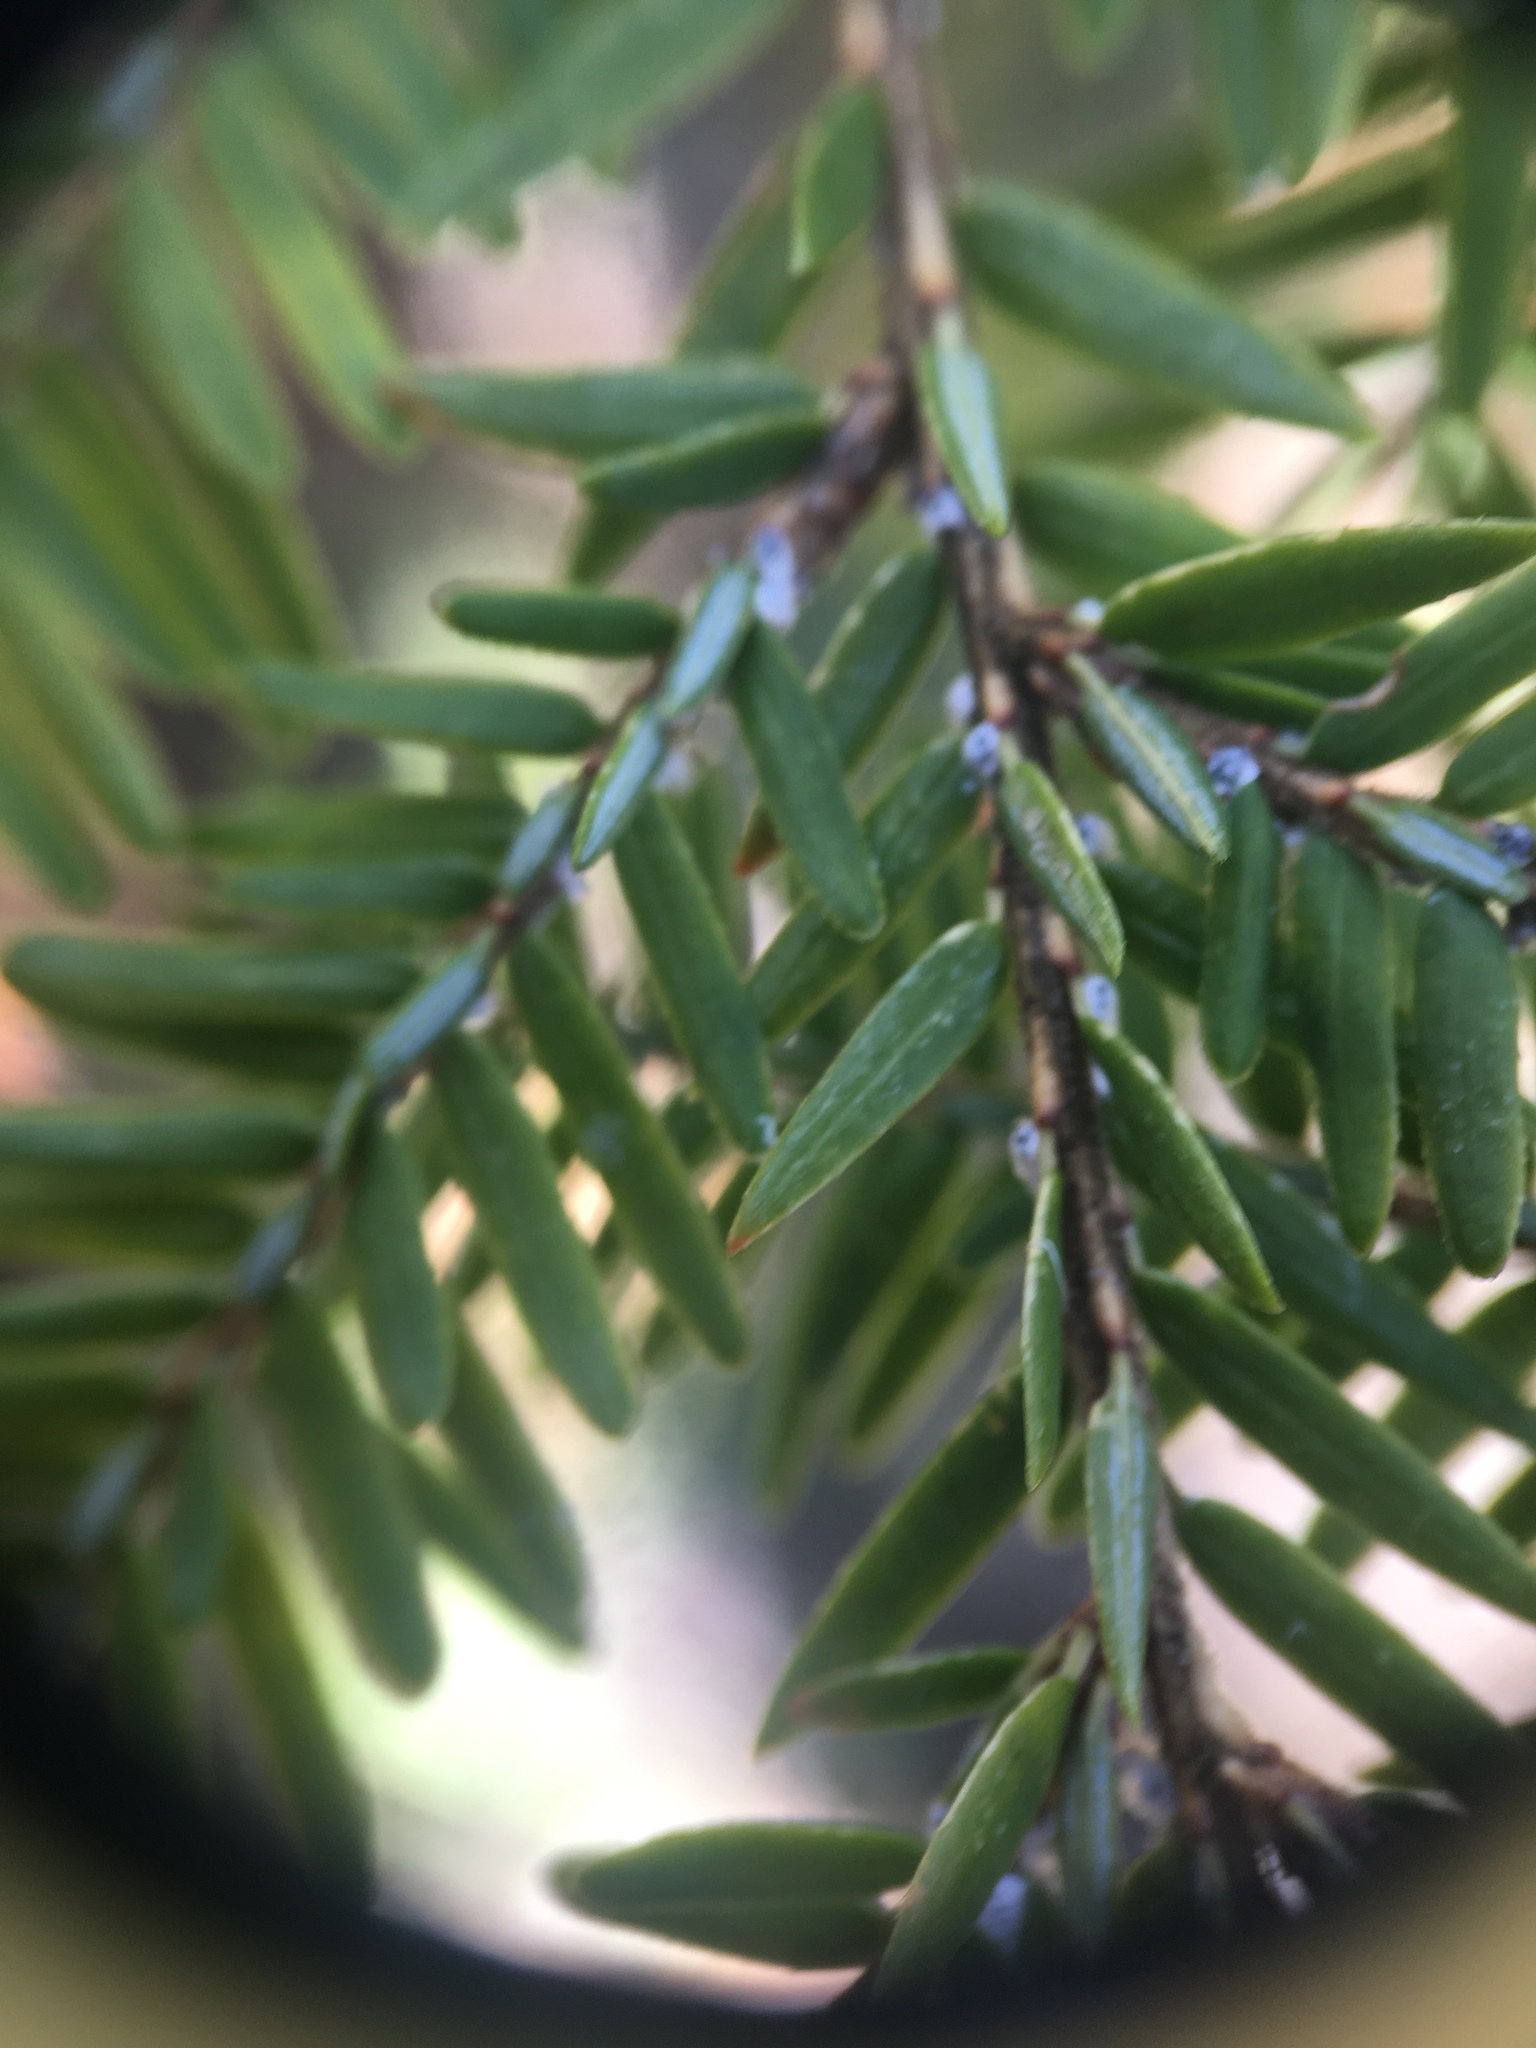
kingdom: Animalia
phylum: Arthropoda
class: Insecta
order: Hemiptera
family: Adelgidae
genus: Adelges
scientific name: Adelges tsugae
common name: Hemlock woolly adelgid
